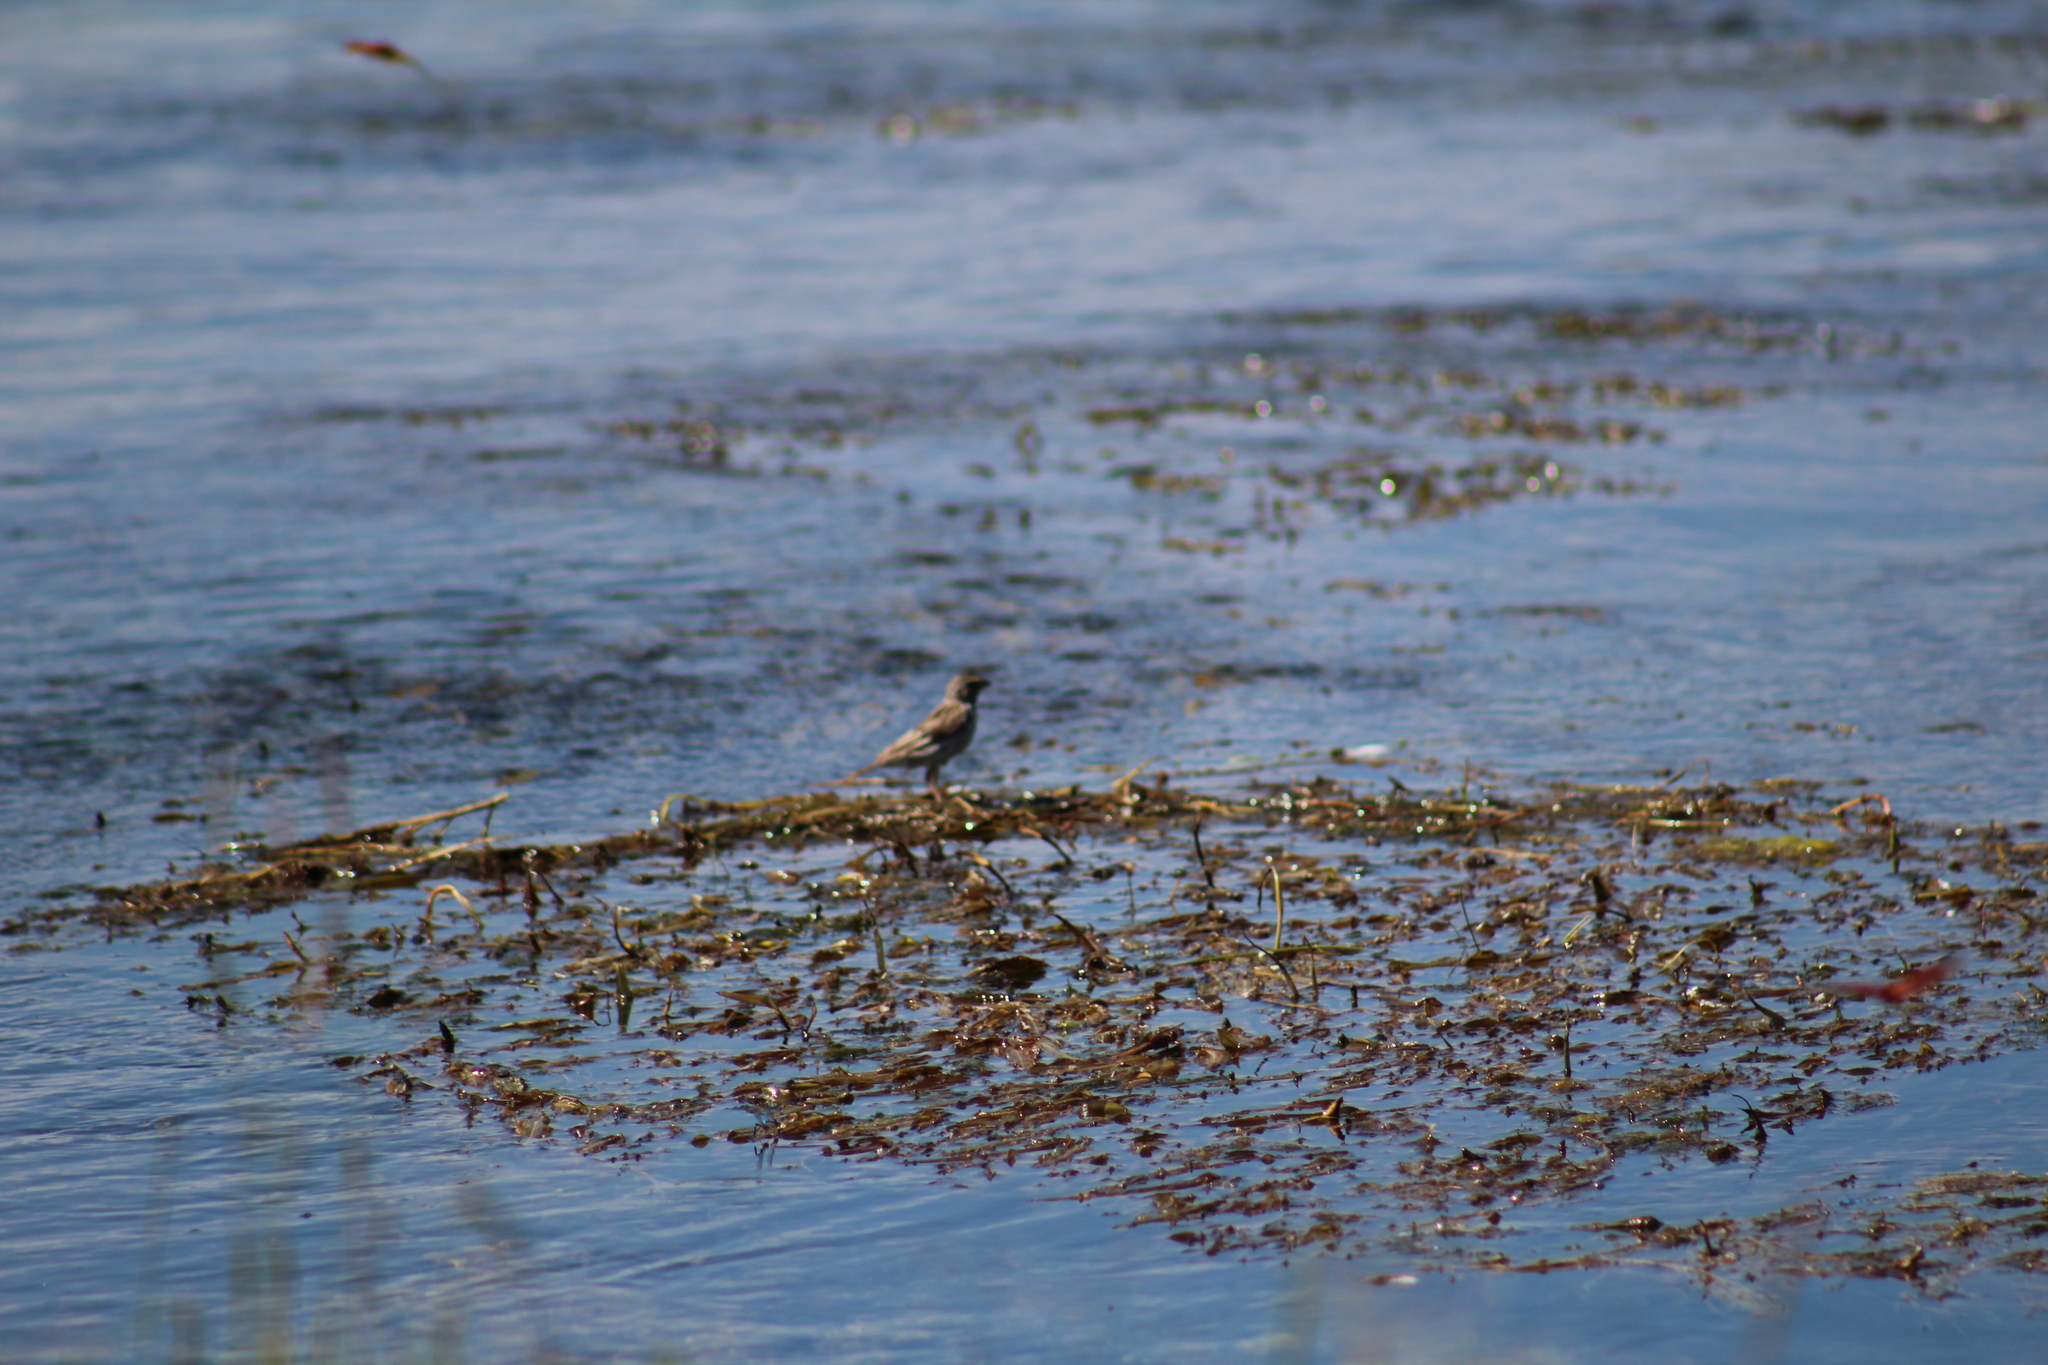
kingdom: Animalia
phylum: Chordata
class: Aves
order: Passeriformes
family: Calcariidae
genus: Rhynchophanes
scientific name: Rhynchophanes mccownii
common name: Mccown's longspur
